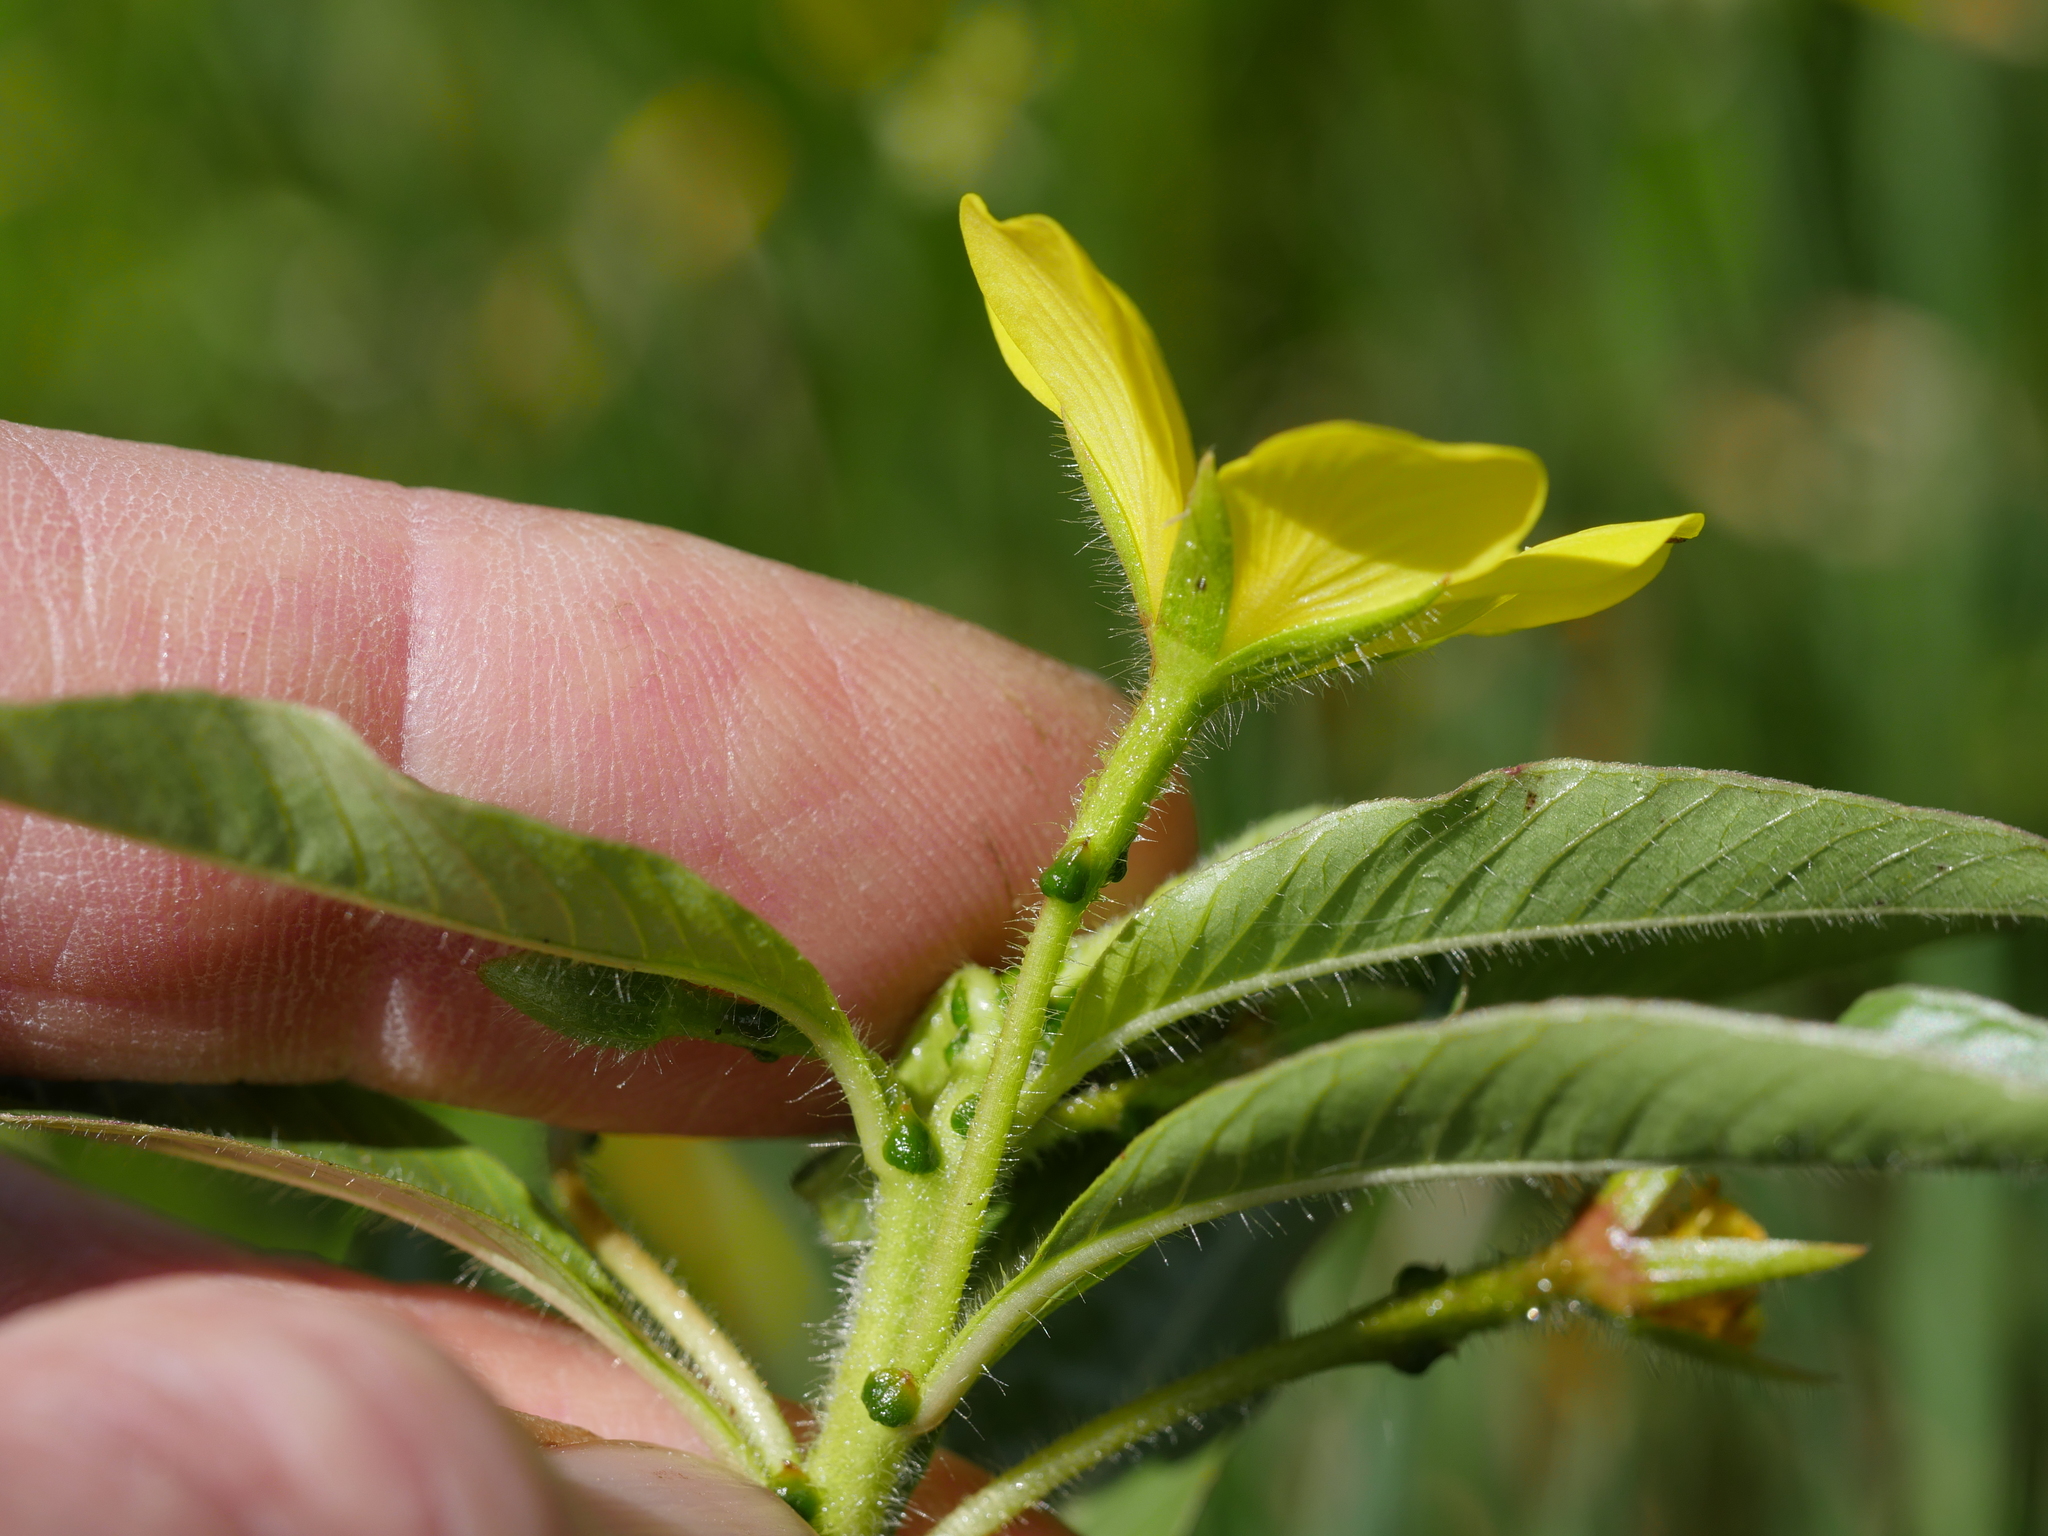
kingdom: Plantae
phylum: Tracheophyta
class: Magnoliopsida
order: Myrtales
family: Onagraceae
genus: Ludwigia
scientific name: Ludwigia peploides
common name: Floating primrose-willow
